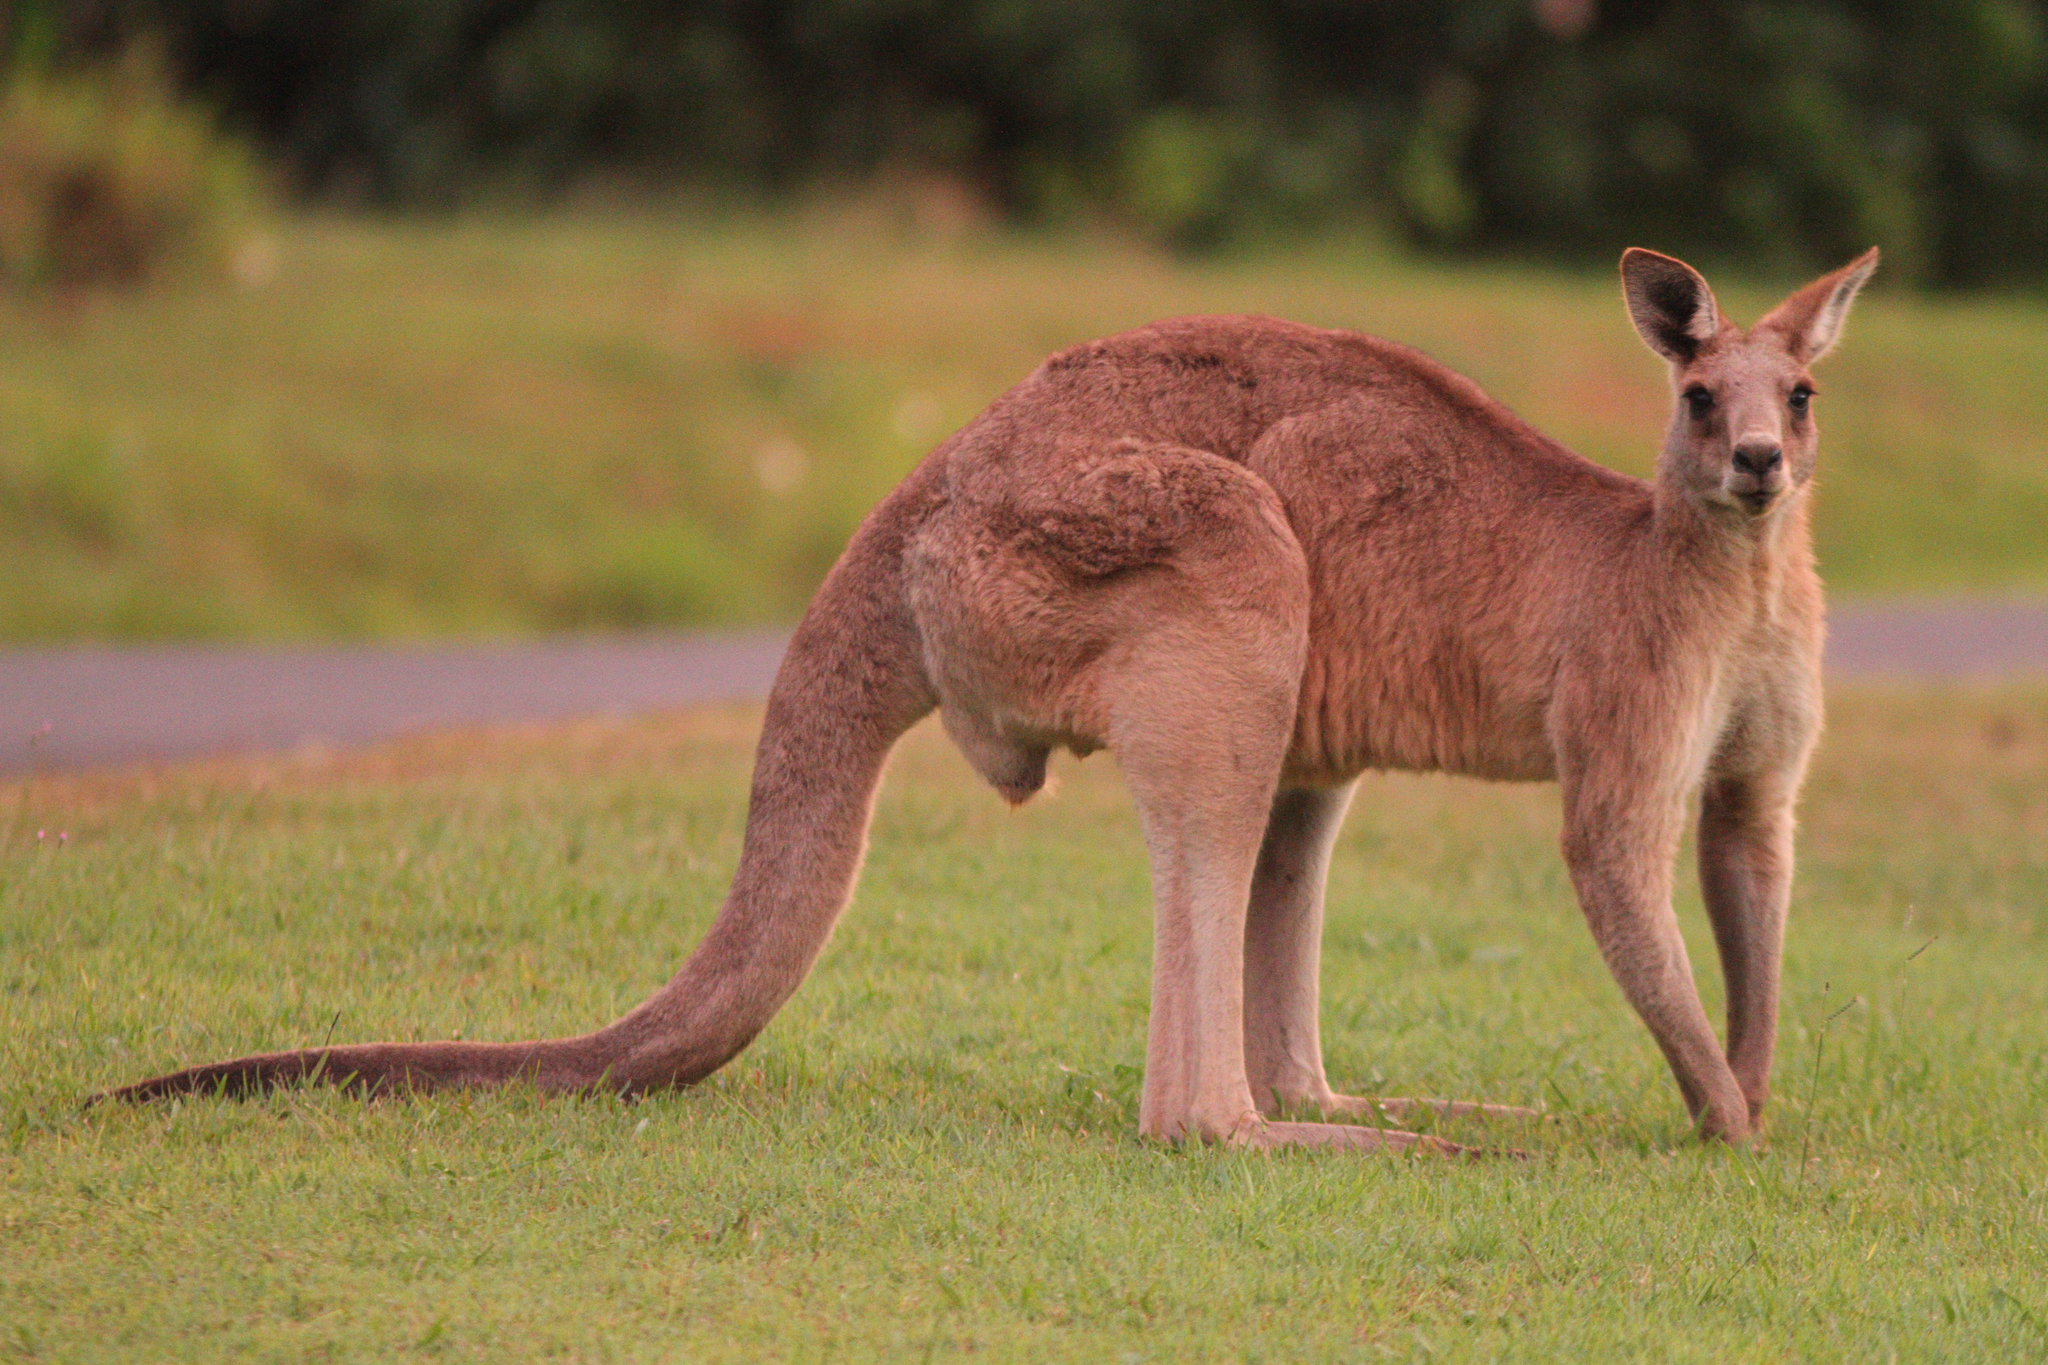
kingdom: Animalia
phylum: Chordata
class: Mammalia
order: Diprotodontia
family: Macropodidae
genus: Macropus
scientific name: Macropus giganteus
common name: Eastern grey kangaroo
